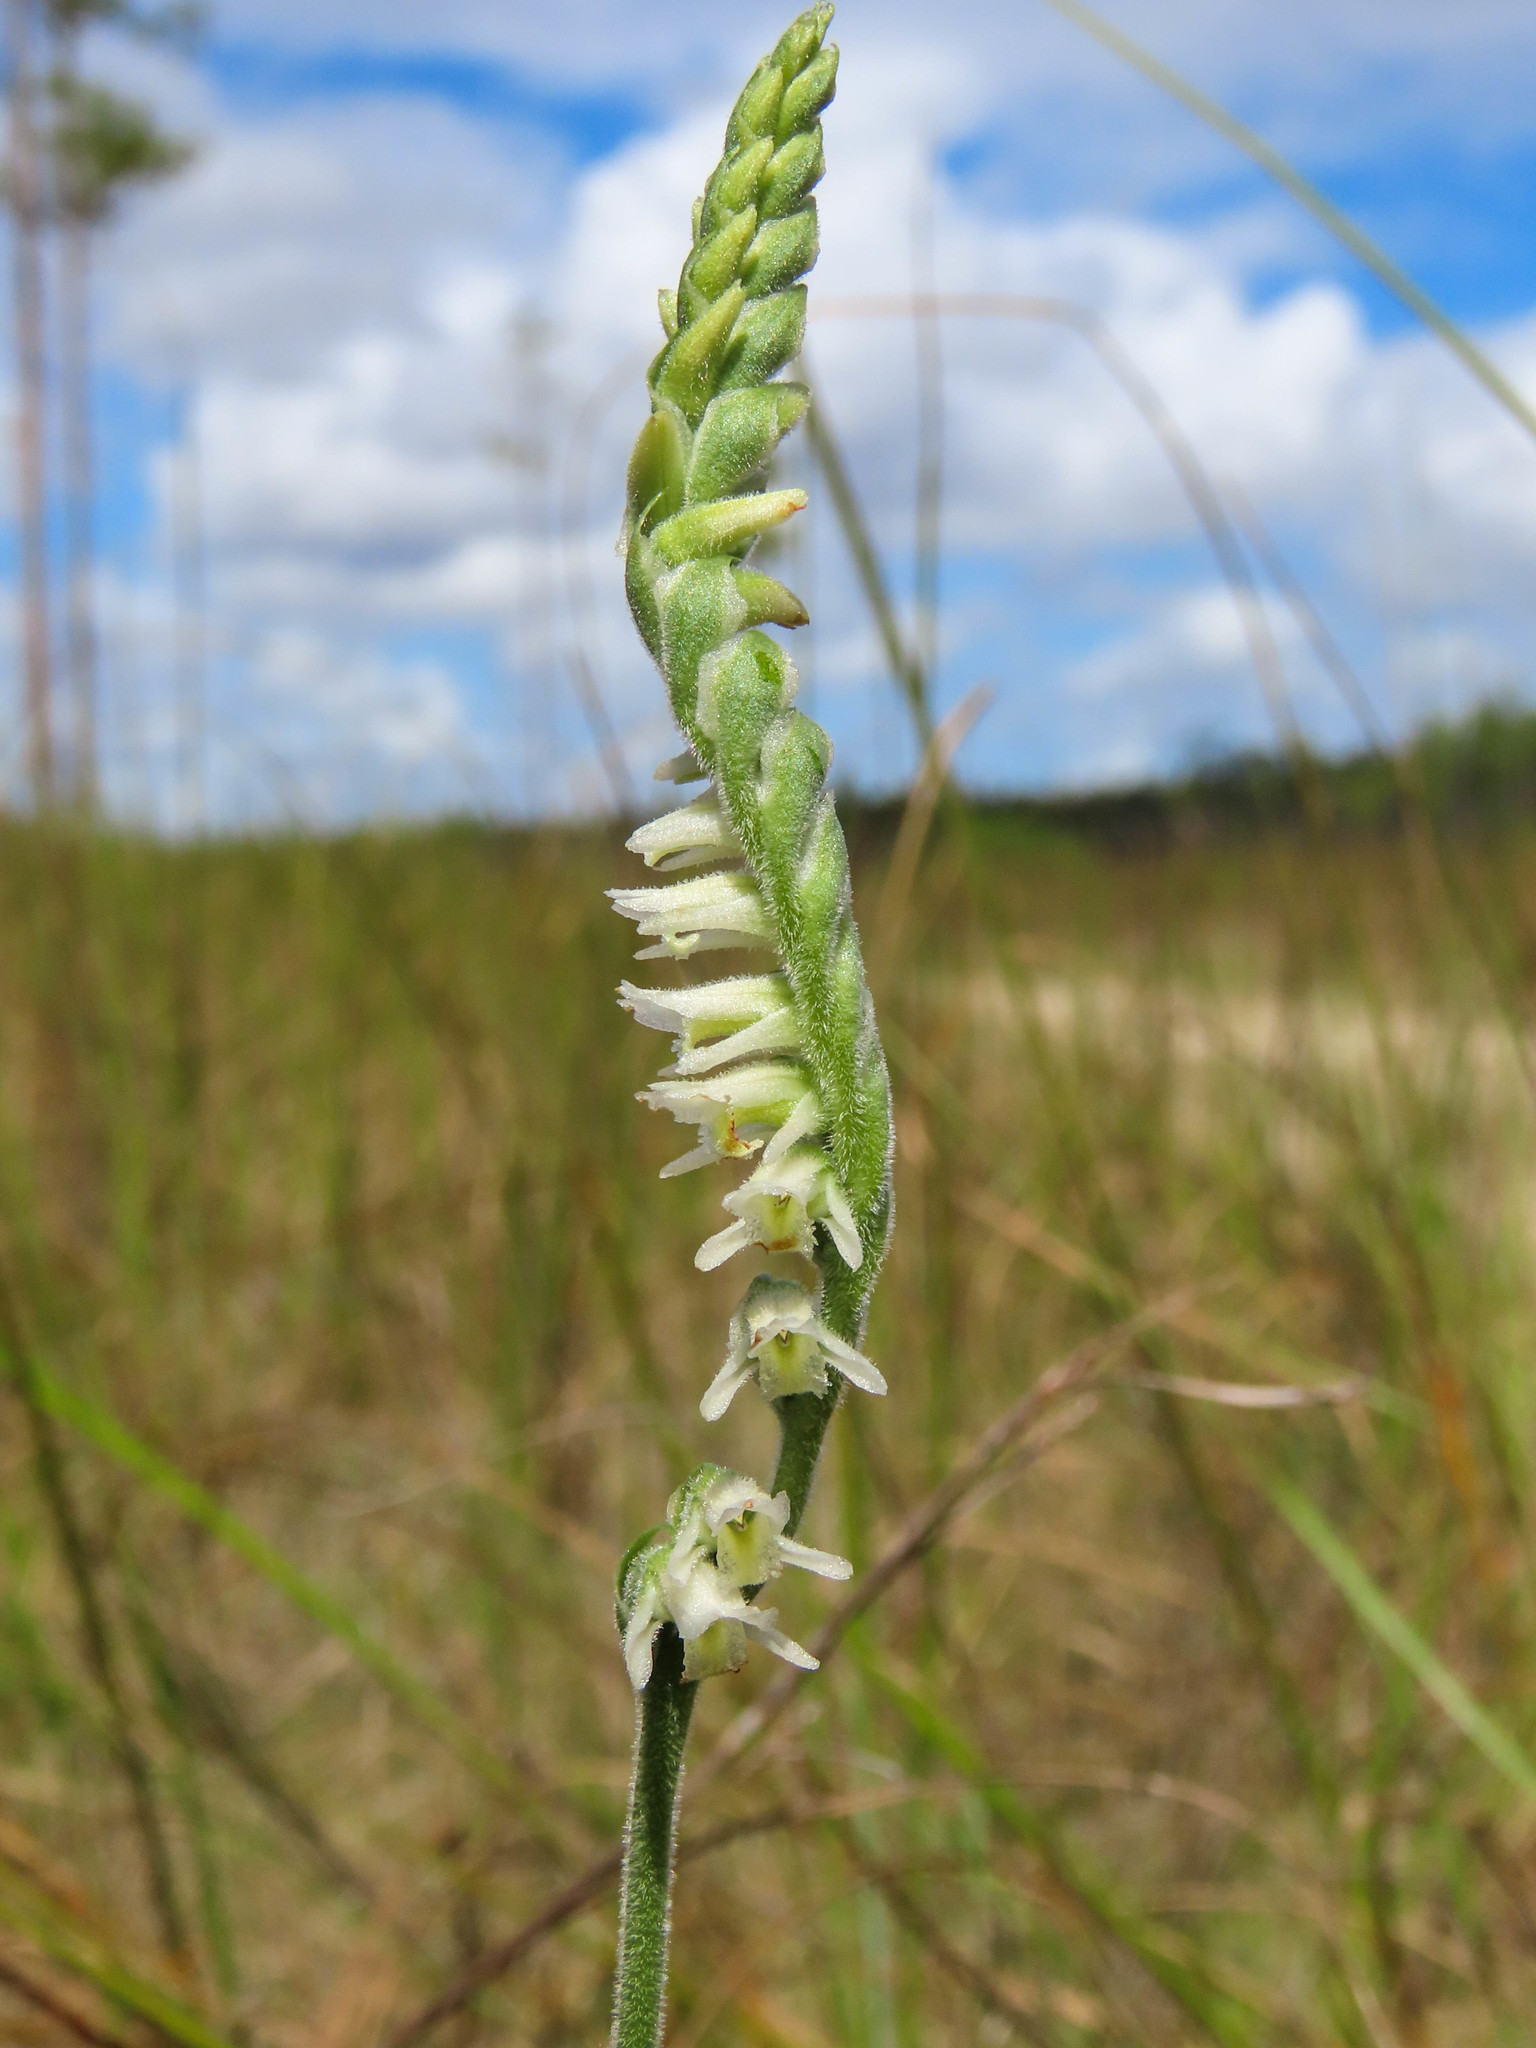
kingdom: Plantae
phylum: Tracheophyta
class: Liliopsida
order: Asparagales
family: Orchidaceae
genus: Spiranthes
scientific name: Spiranthes vernalis
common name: Spring ladies'-tresses
